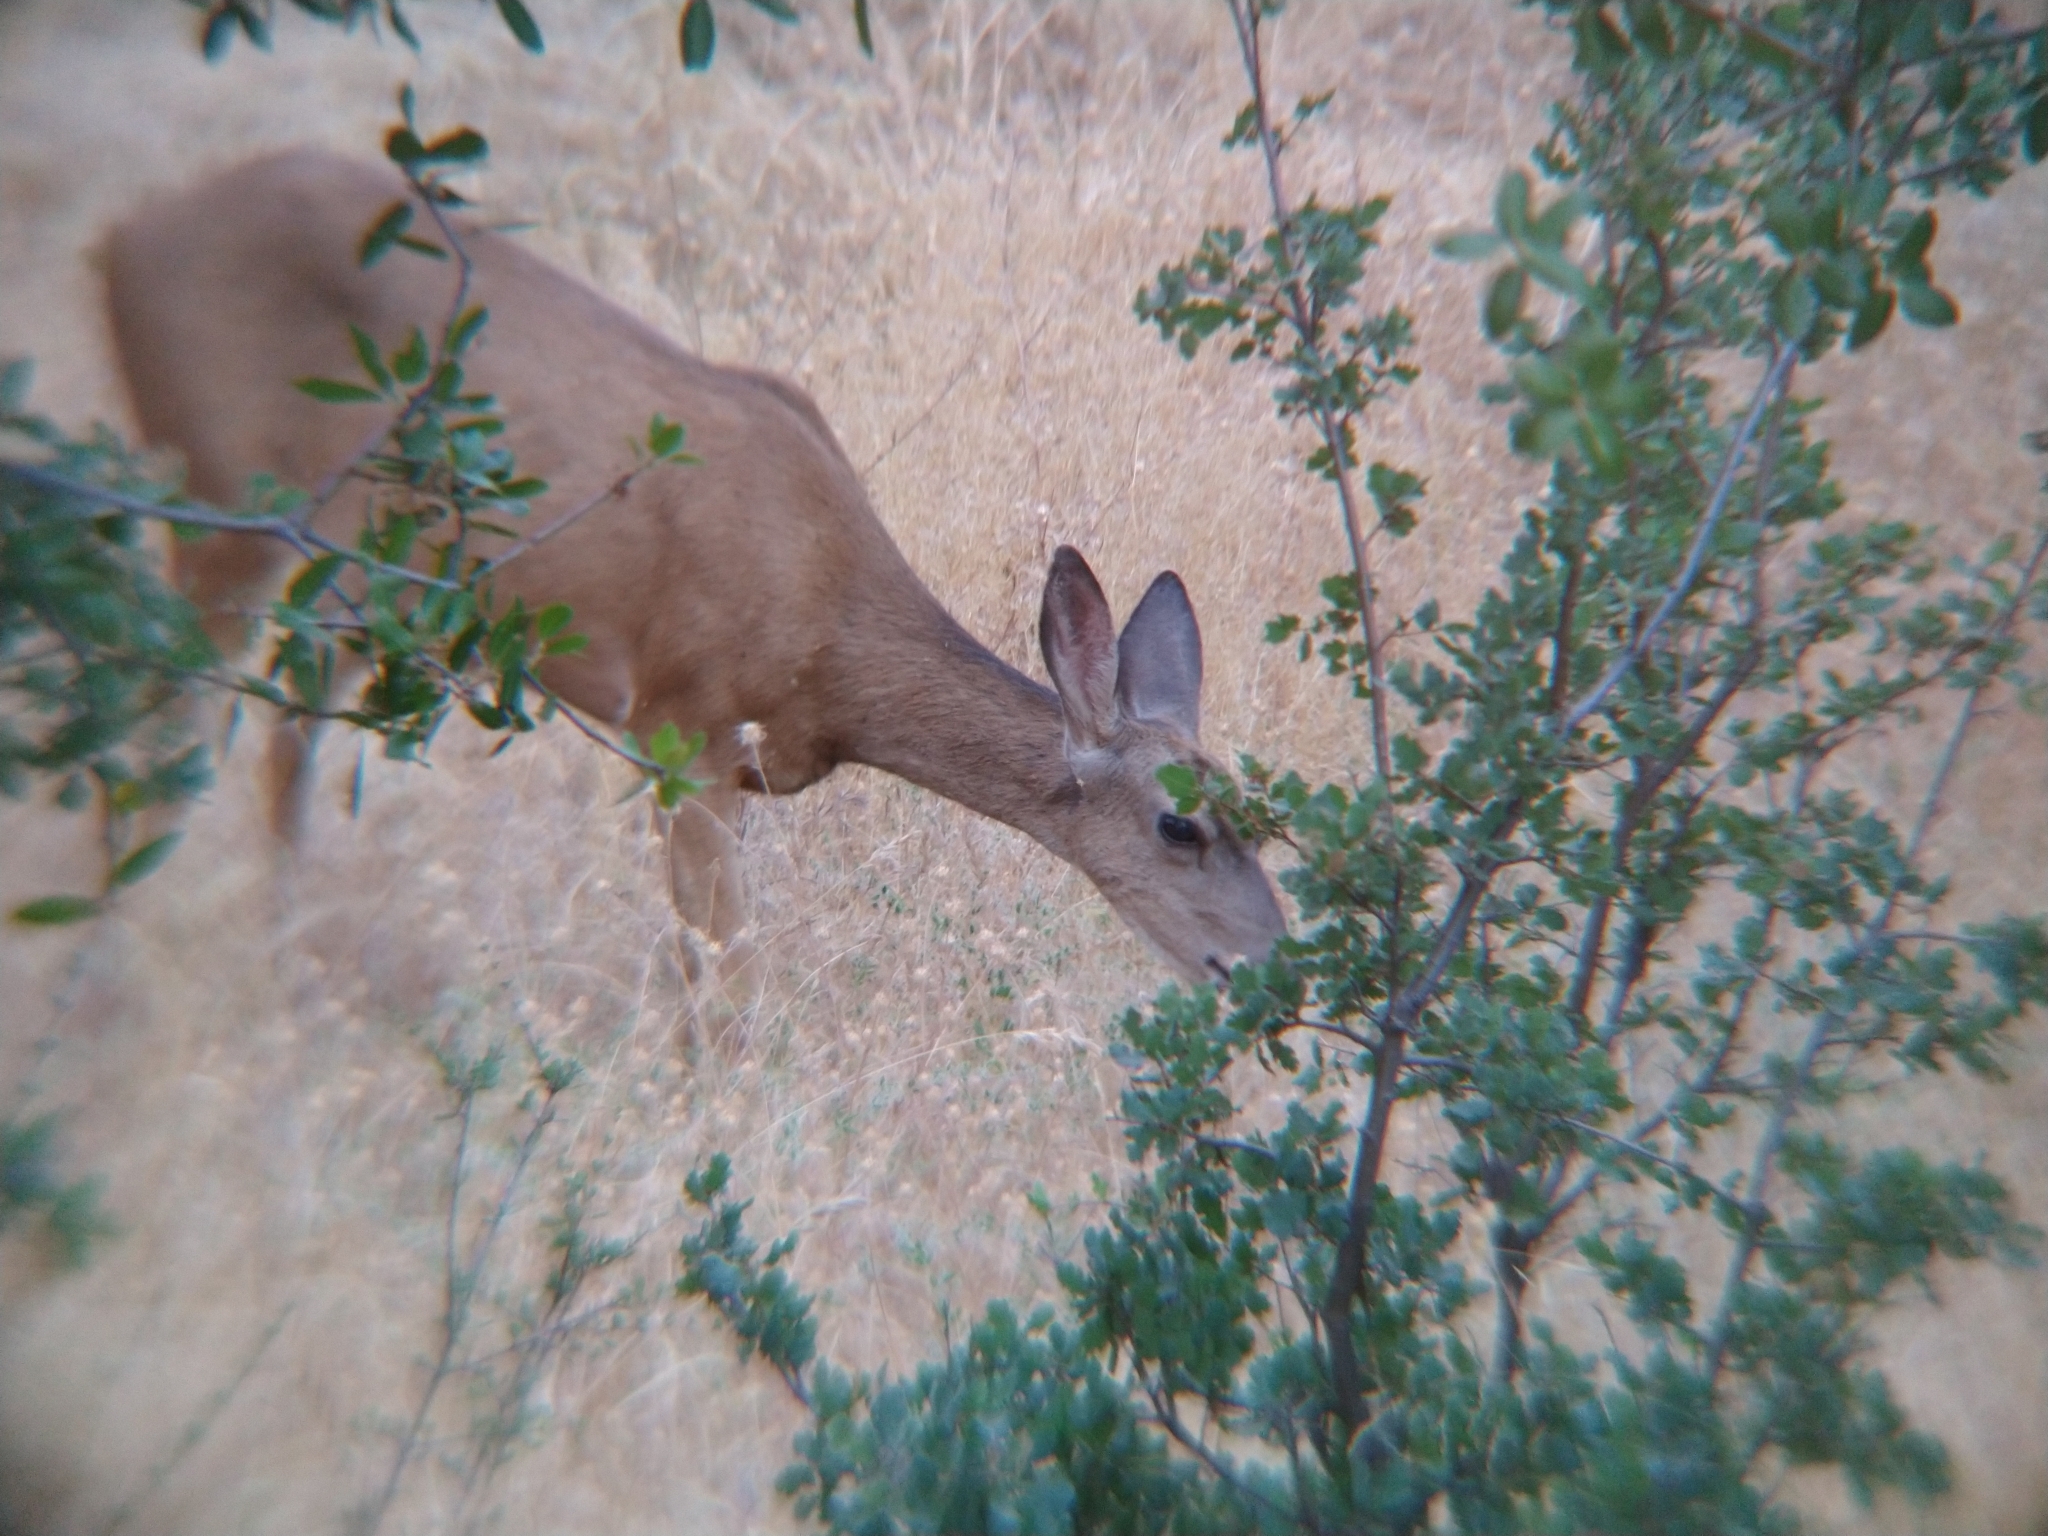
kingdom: Animalia
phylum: Chordata
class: Mammalia
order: Artiodactyla
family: Cervidae
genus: Odocoileus
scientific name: Odocoileus hemionus
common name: Mule deer
